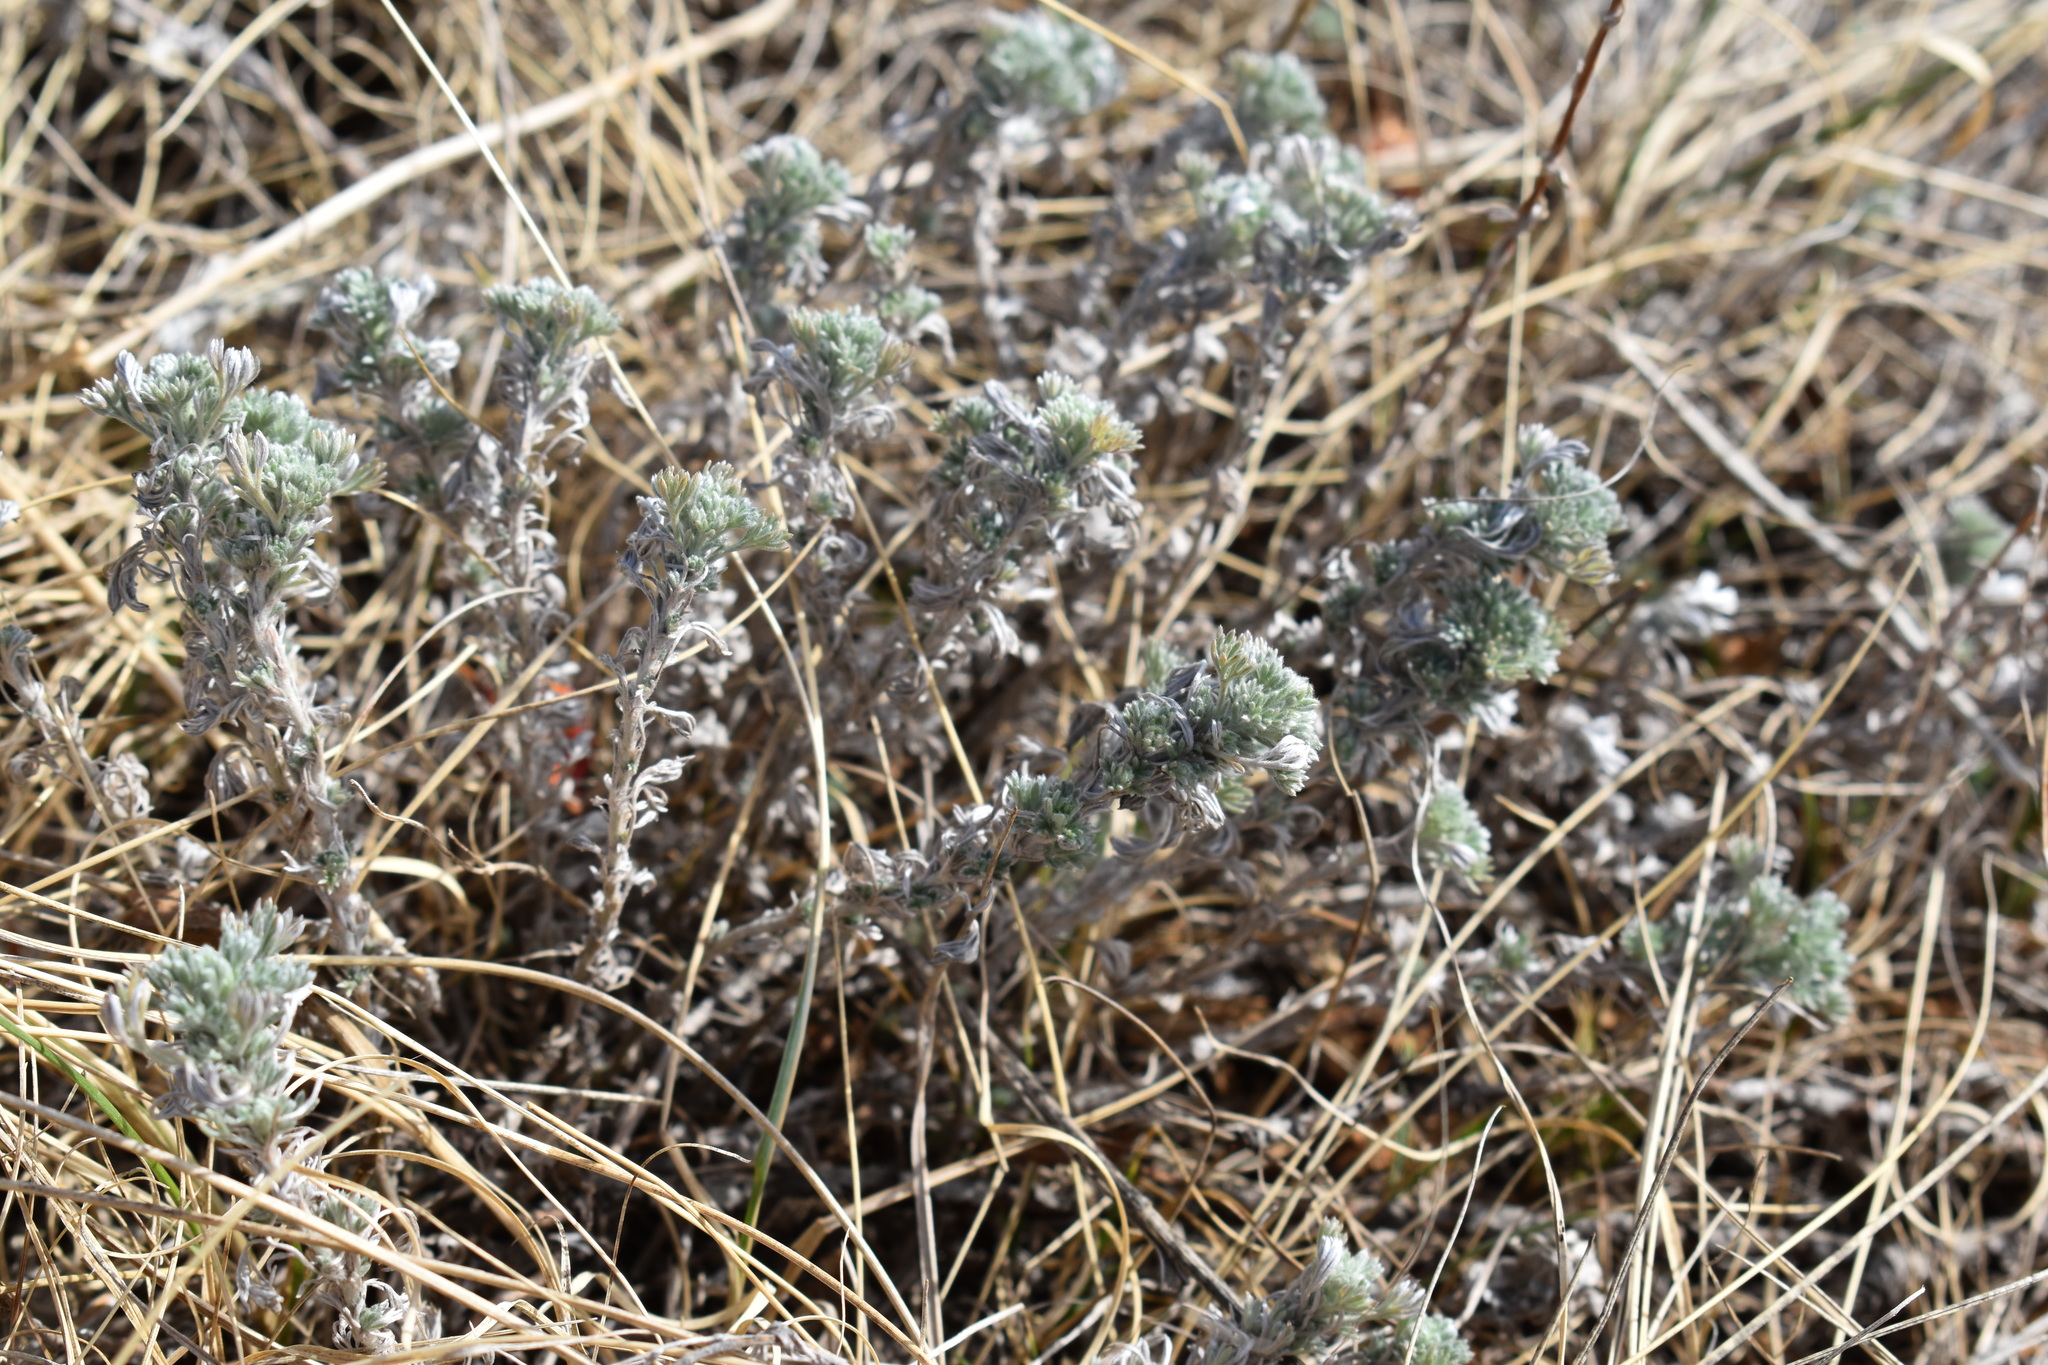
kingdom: Plantae
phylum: Tracheophyta
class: Magnoliopsida
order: Asterales
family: Asteraceae
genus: Artemisia
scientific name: Artemisia frigida
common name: Prairie sagewort
